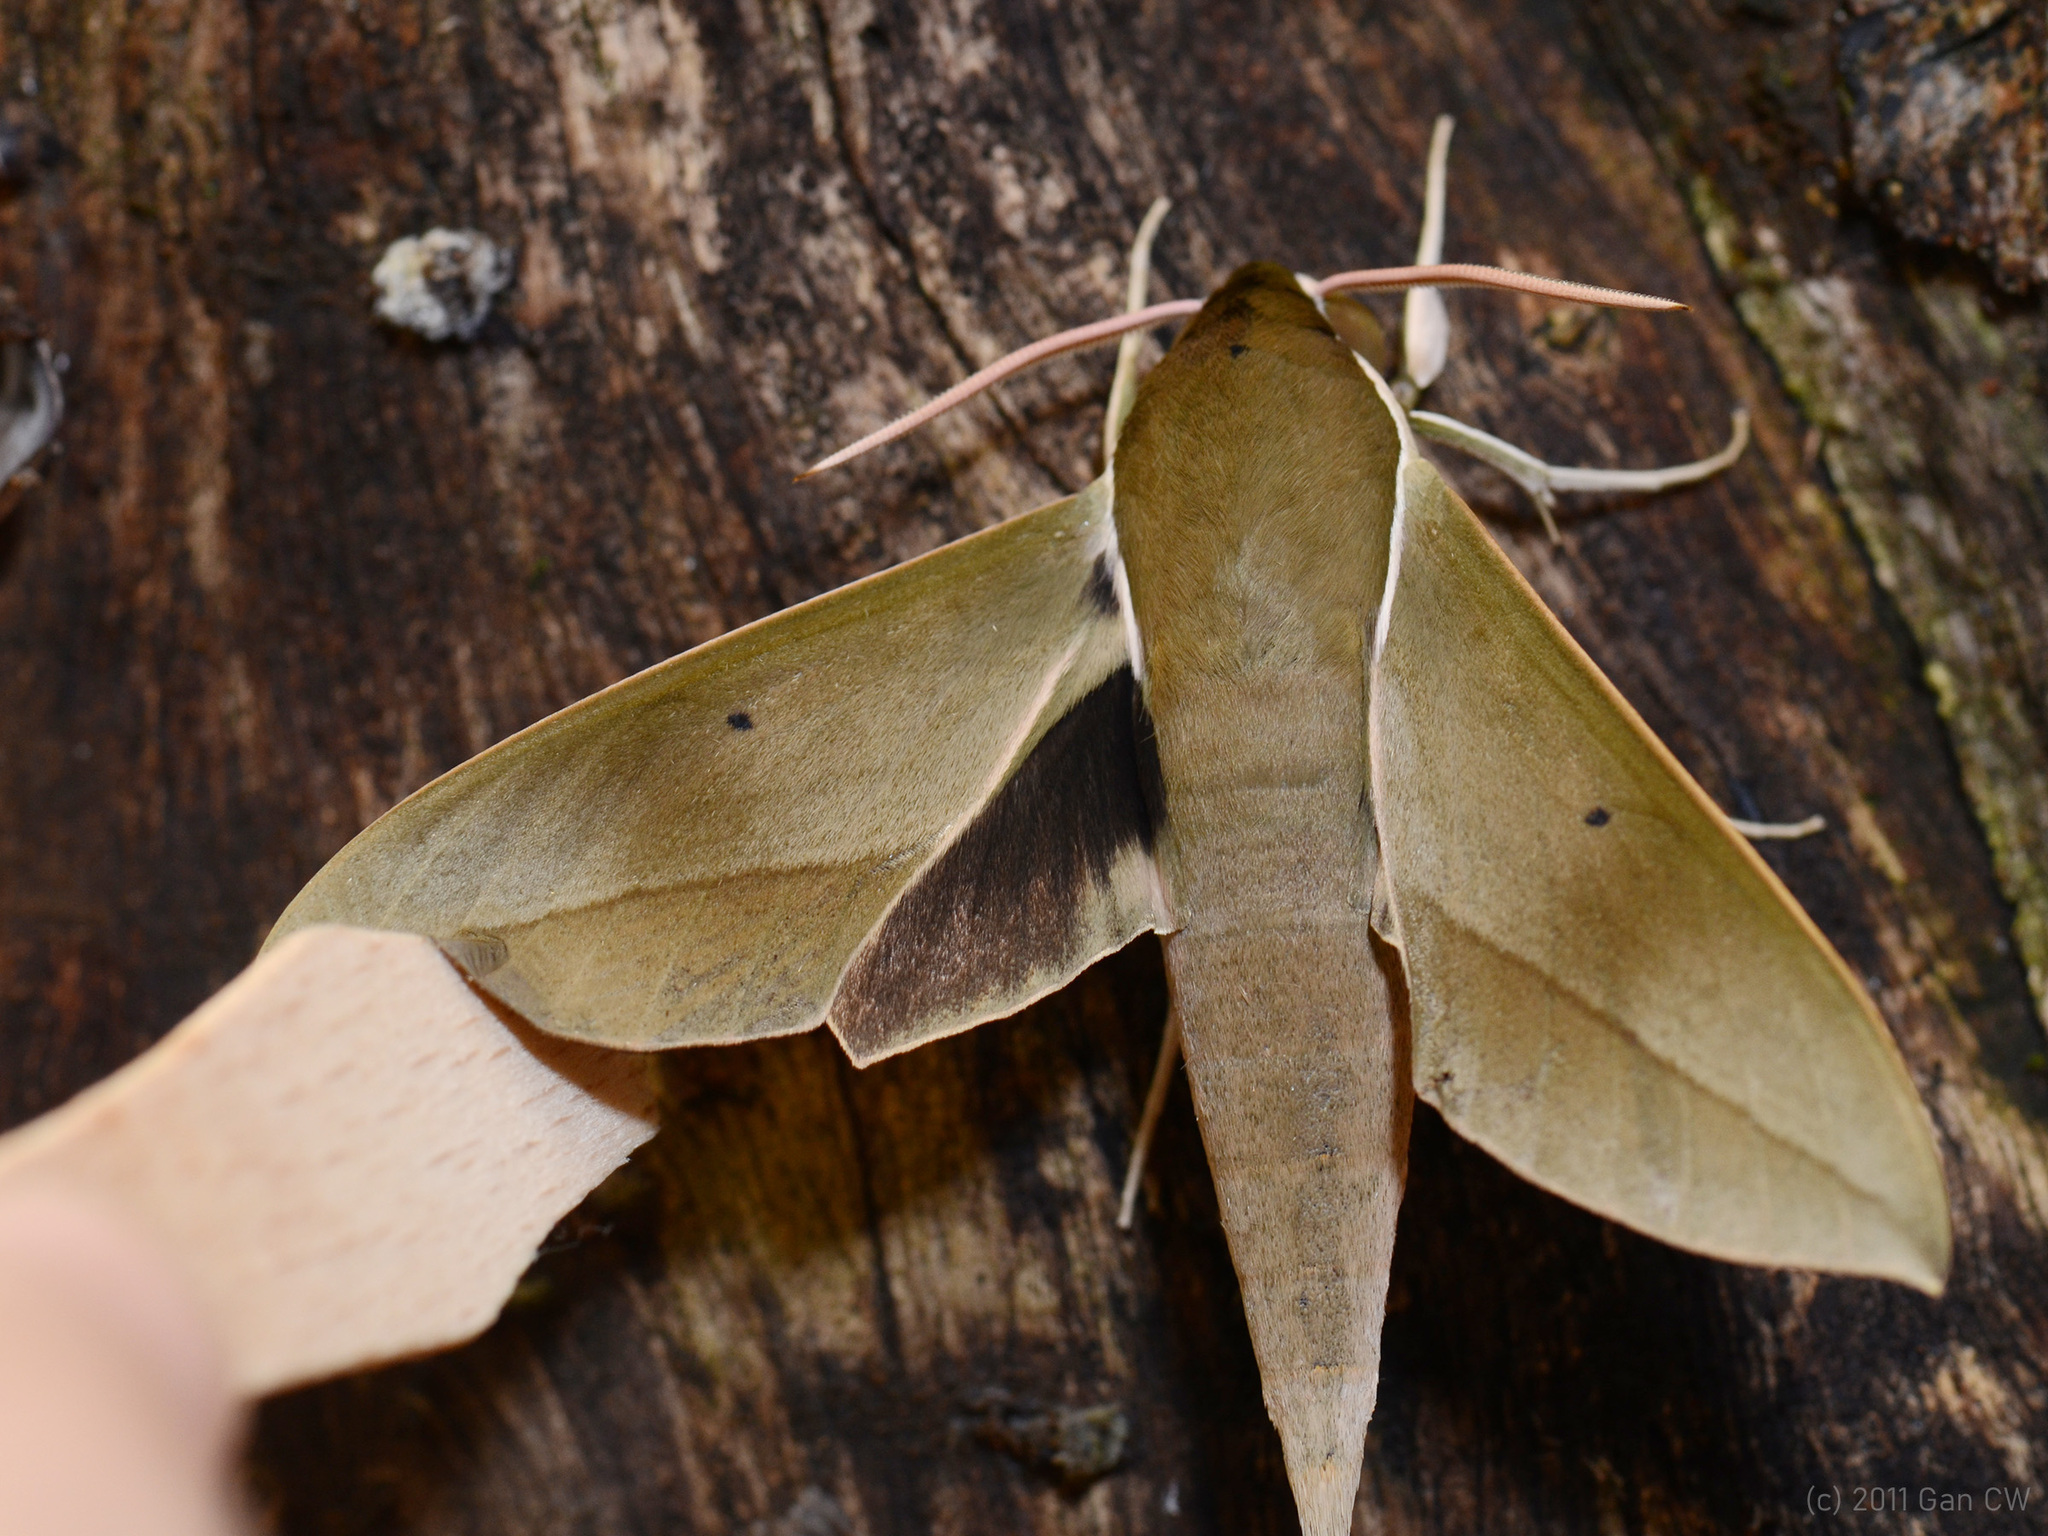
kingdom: Animalia
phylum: Arthropoda
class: Insecta
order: Lepidoptera
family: Sphingidae
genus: Theretra
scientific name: Theretra clotho
